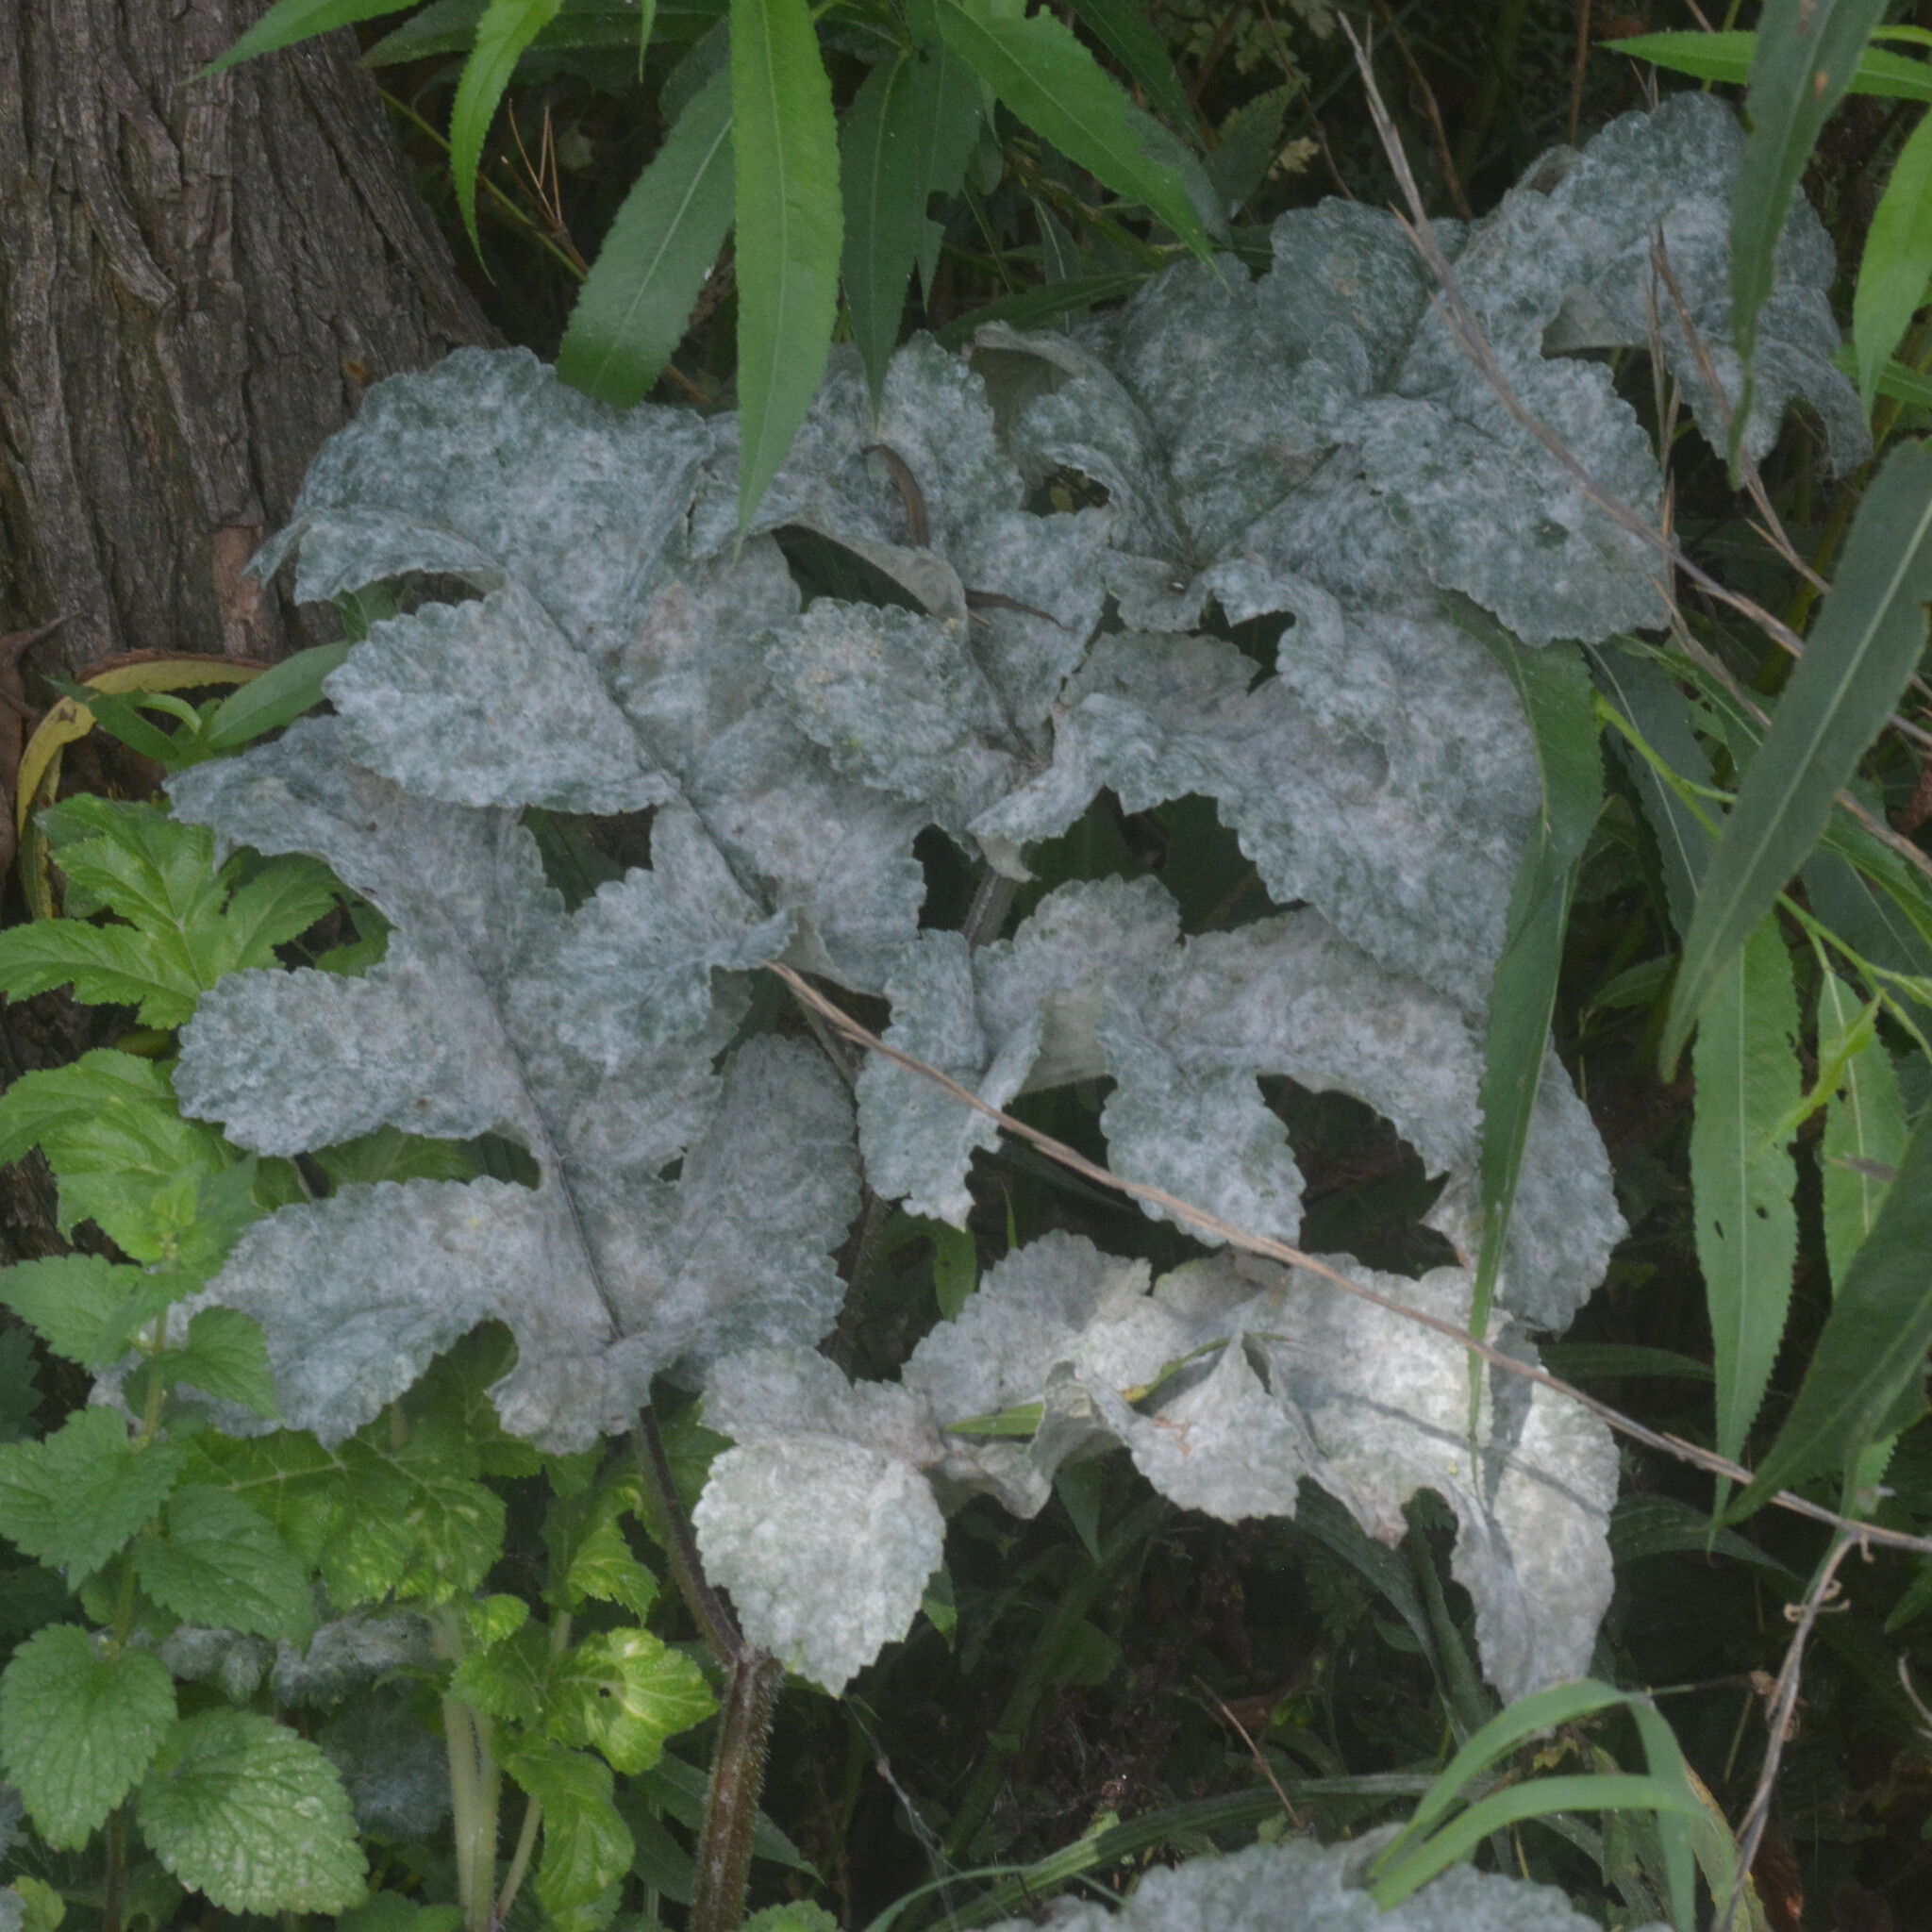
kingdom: Fungi
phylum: Ascomycota
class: Leotiomycetes
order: Helotiales
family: Erysiphaceae
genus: Erysiphe
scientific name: Erysiphe heraclei
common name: Umbellifer mildew
